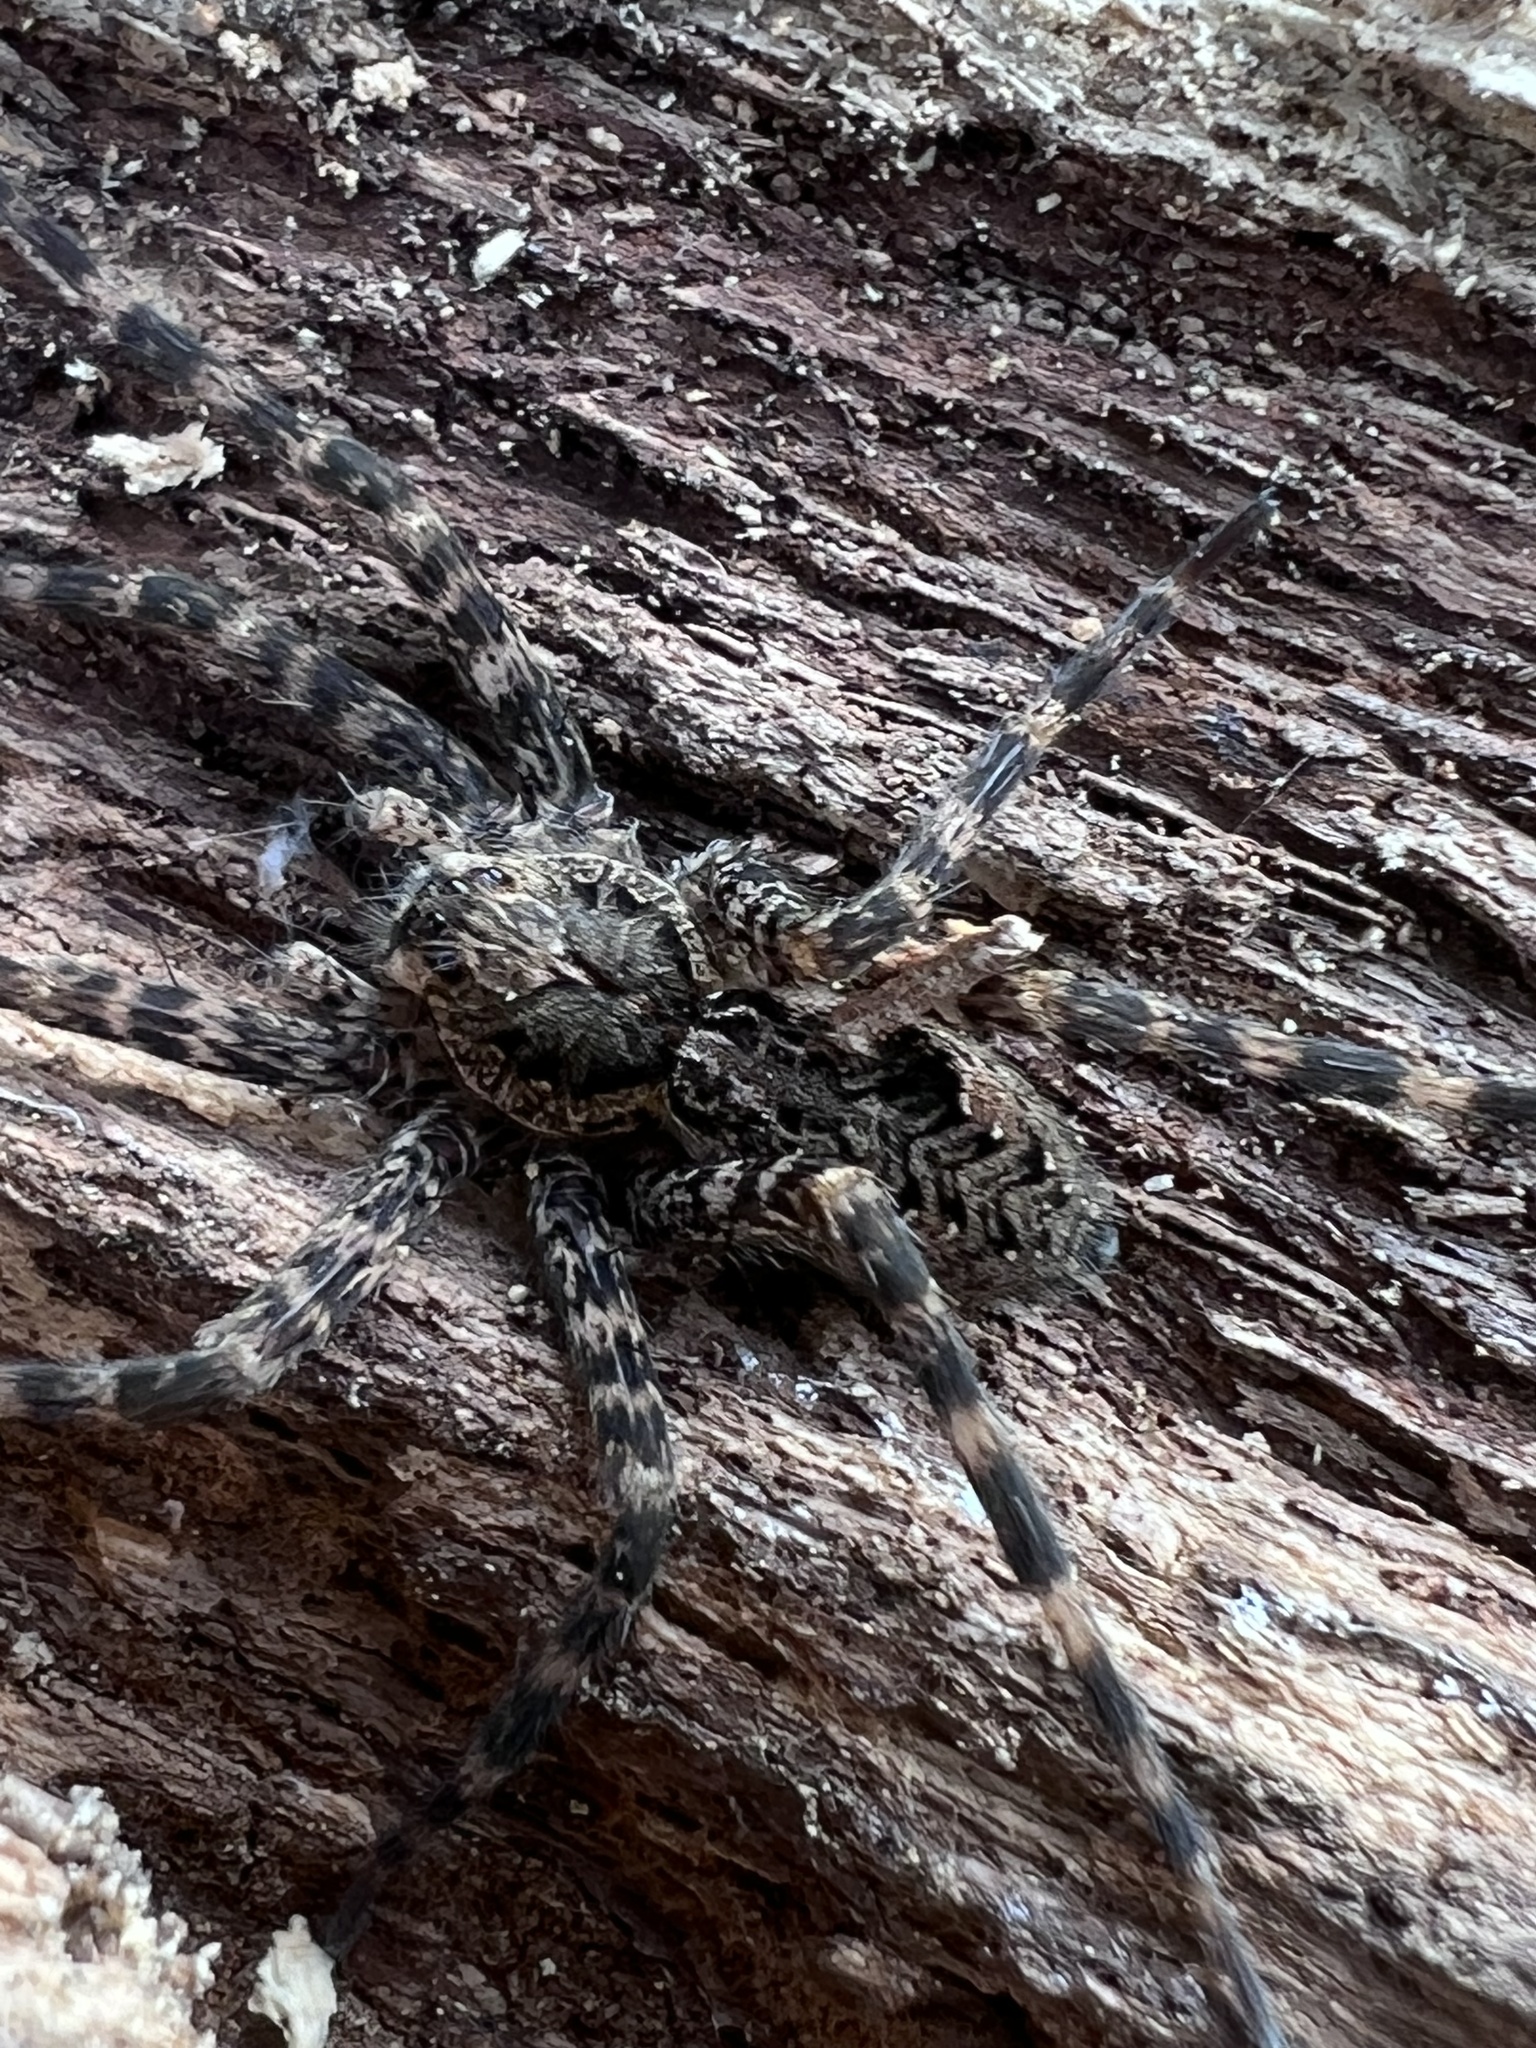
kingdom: Animalia
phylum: Arthropoda
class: Arachnida
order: Araneae
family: Pisauridae
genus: Dolomedes
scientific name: Dolomedes tenebrosus
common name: Dark fishing spider
